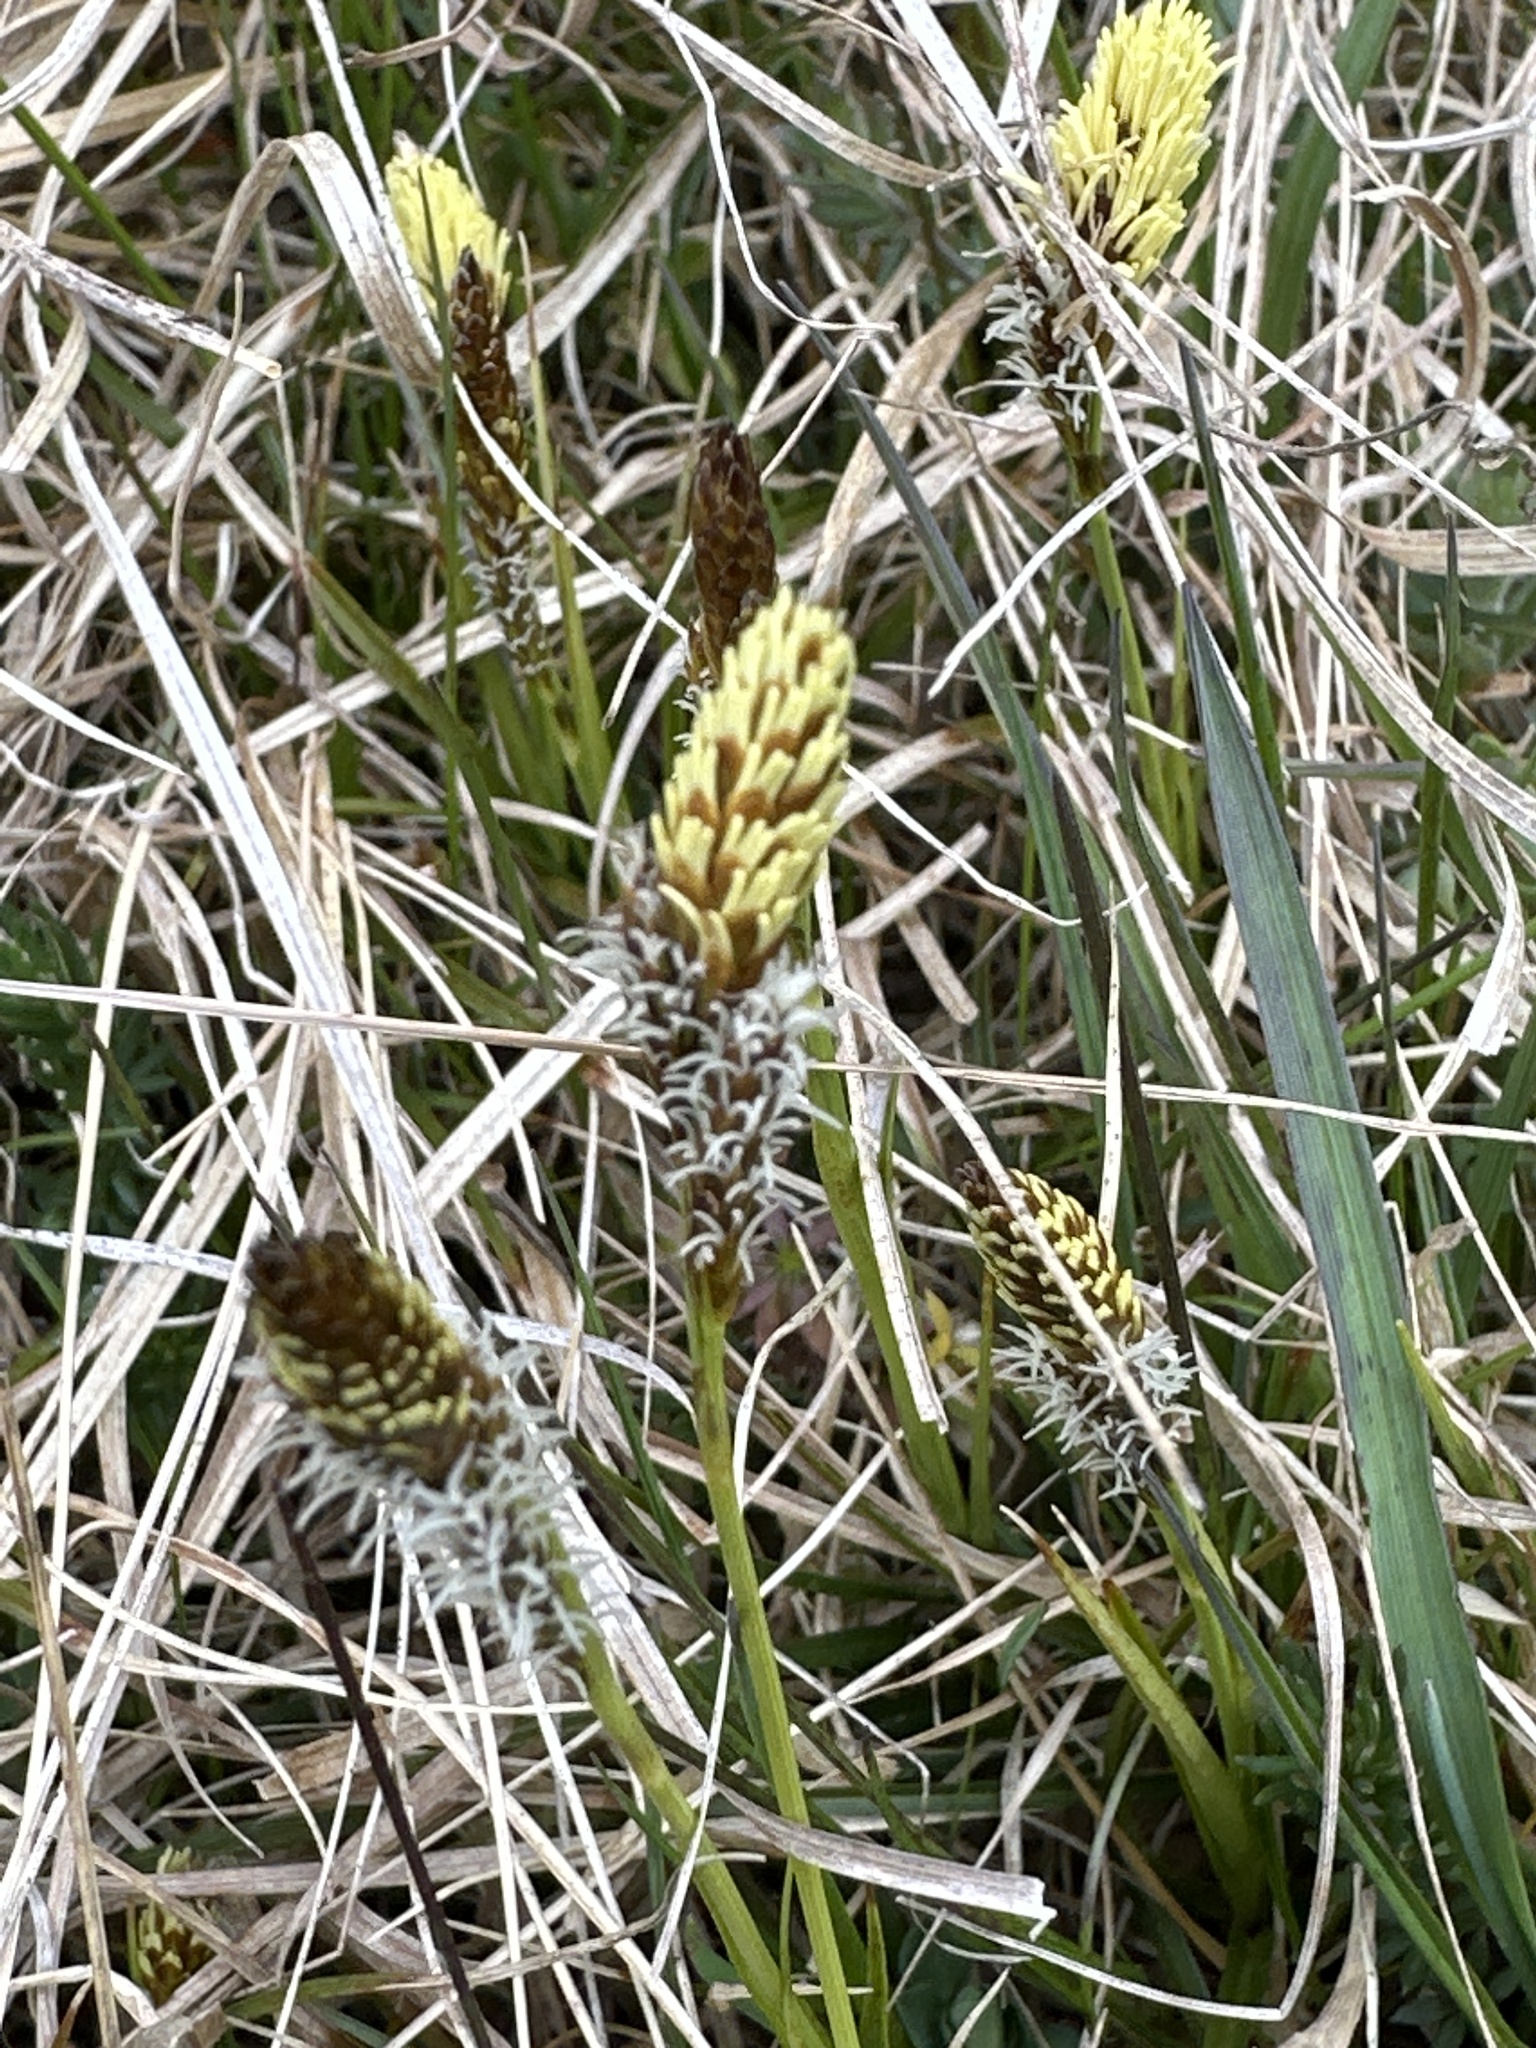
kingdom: Plantae
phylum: Tracheophyta
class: Liliopsida
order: Poales
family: Cyperaceae
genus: Carex
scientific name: Carex caryophyllea
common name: Spring sedge
